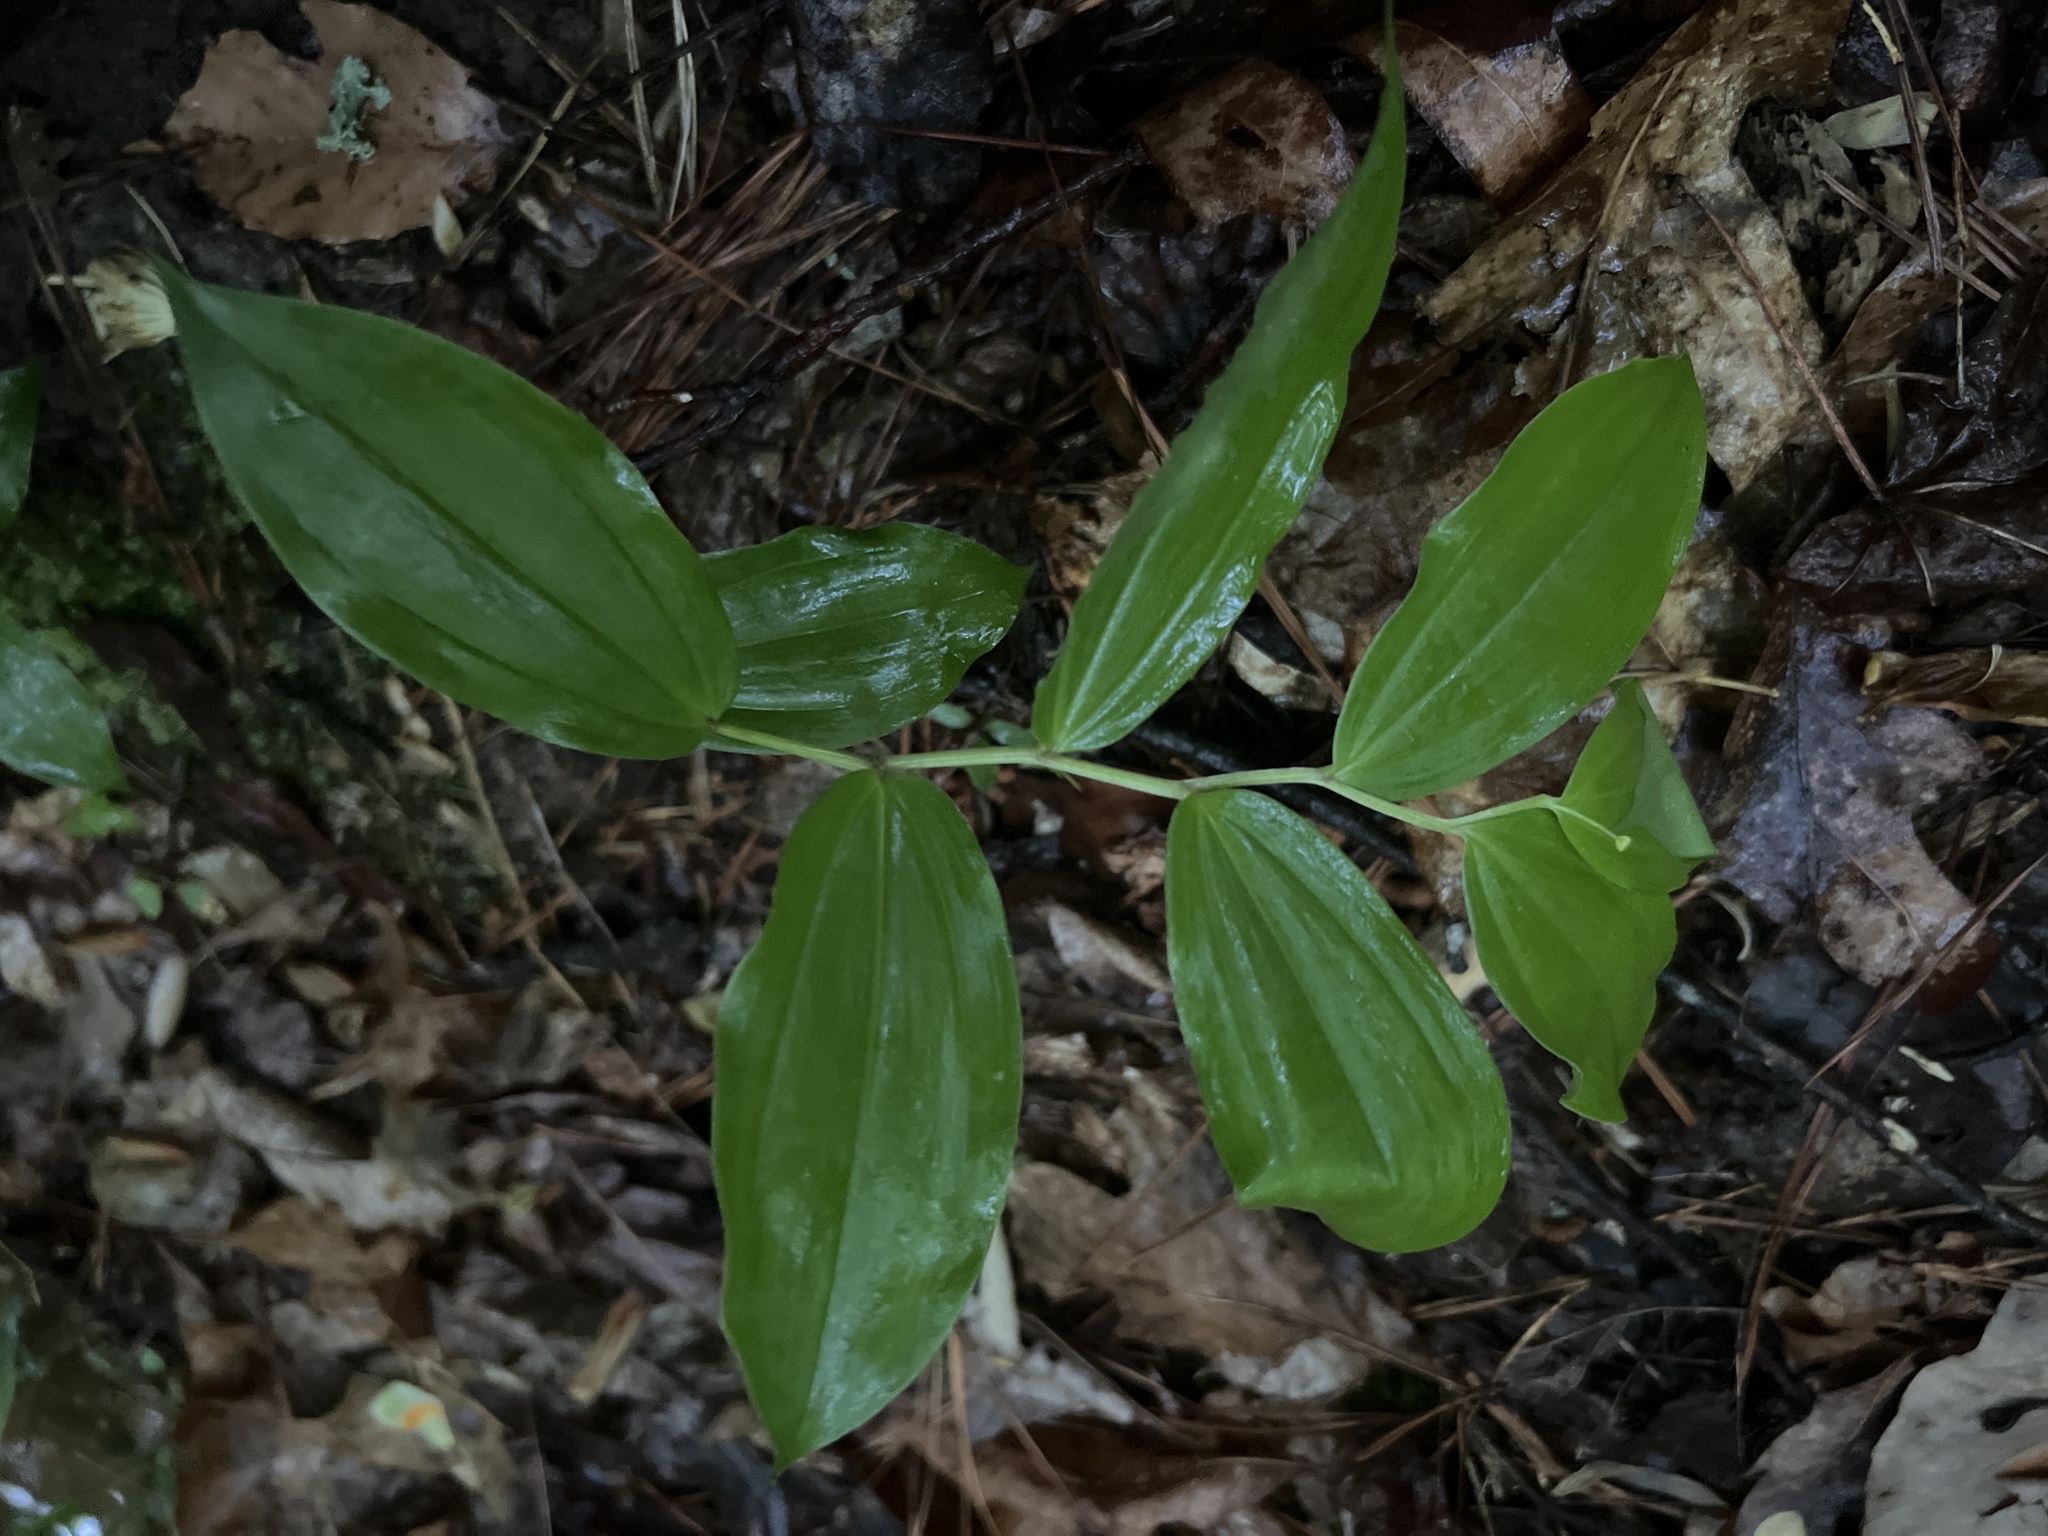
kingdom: Plantae
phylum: Tracheophyta
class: Liliopsida
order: Asparagales
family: Asparagaceae
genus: Maianthemum
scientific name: Maianthemum racemosum
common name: False spikenard
